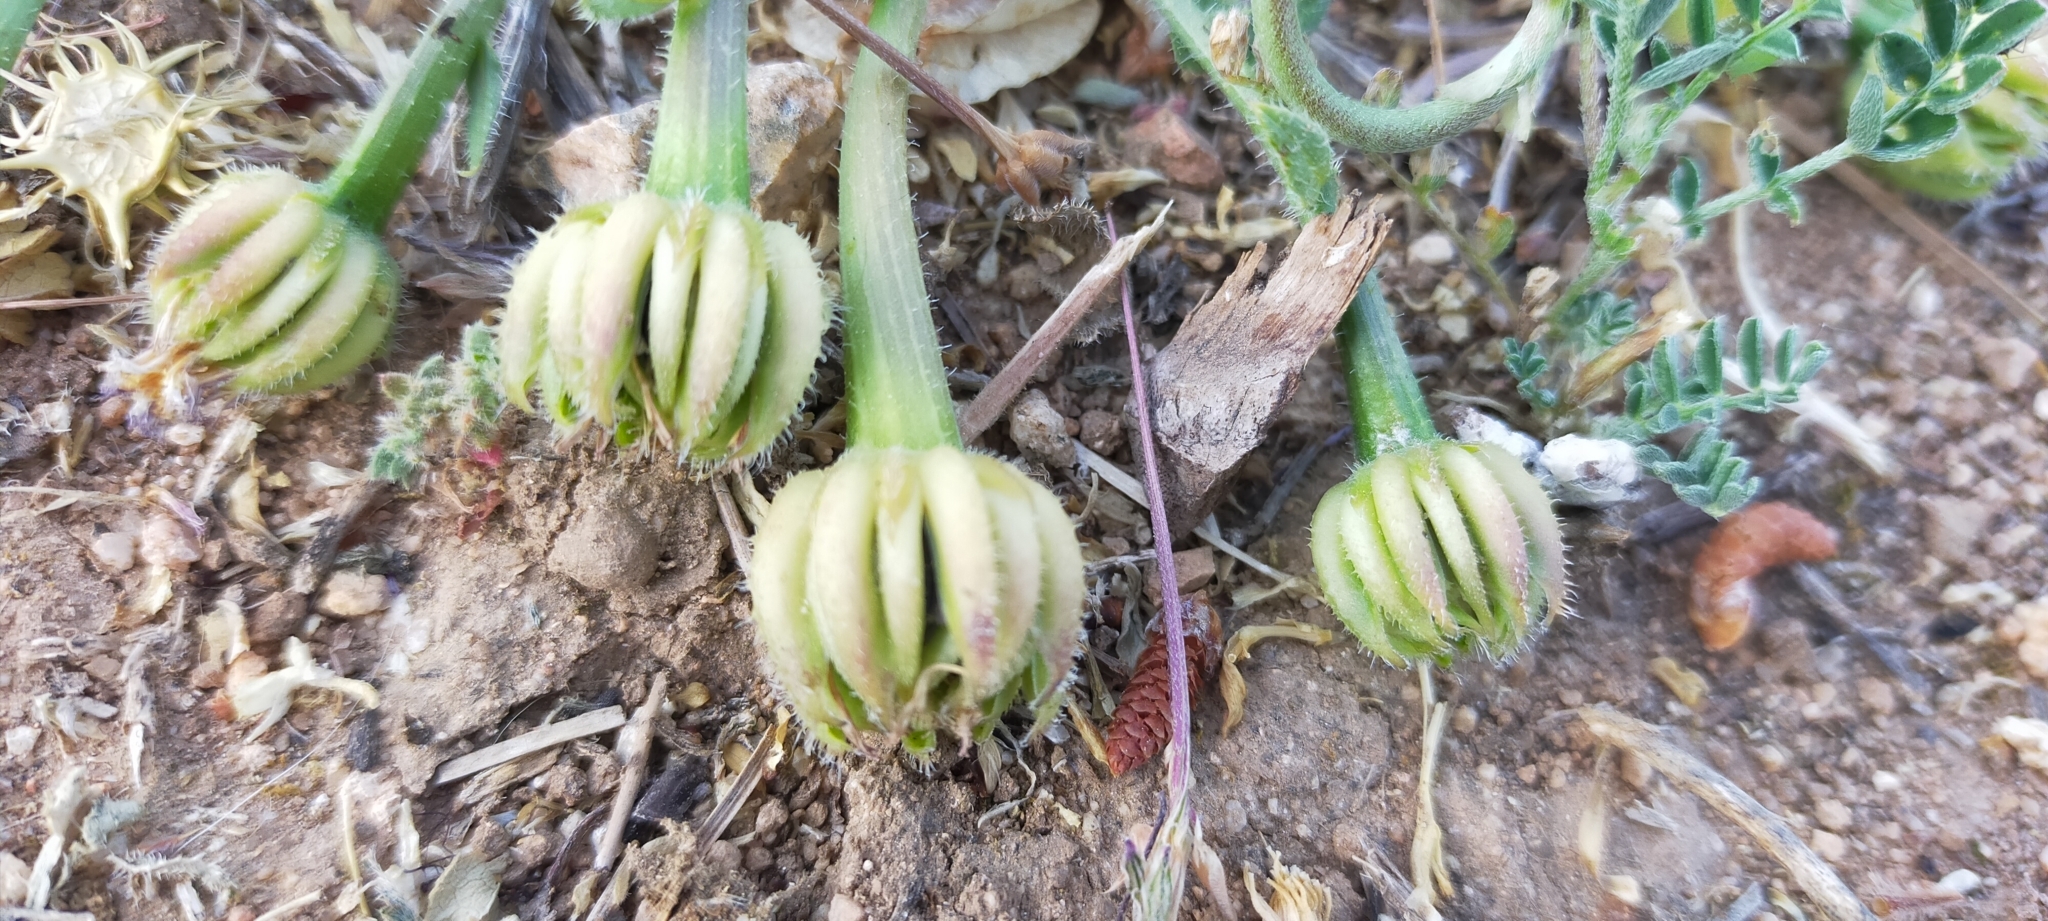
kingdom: Plantae
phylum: Tracheophyta
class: Magnoliopsida
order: Asterales
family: Asteraceae
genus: Hedypnois
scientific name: Hedypnois rhagadioloides
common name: Cretan weed
